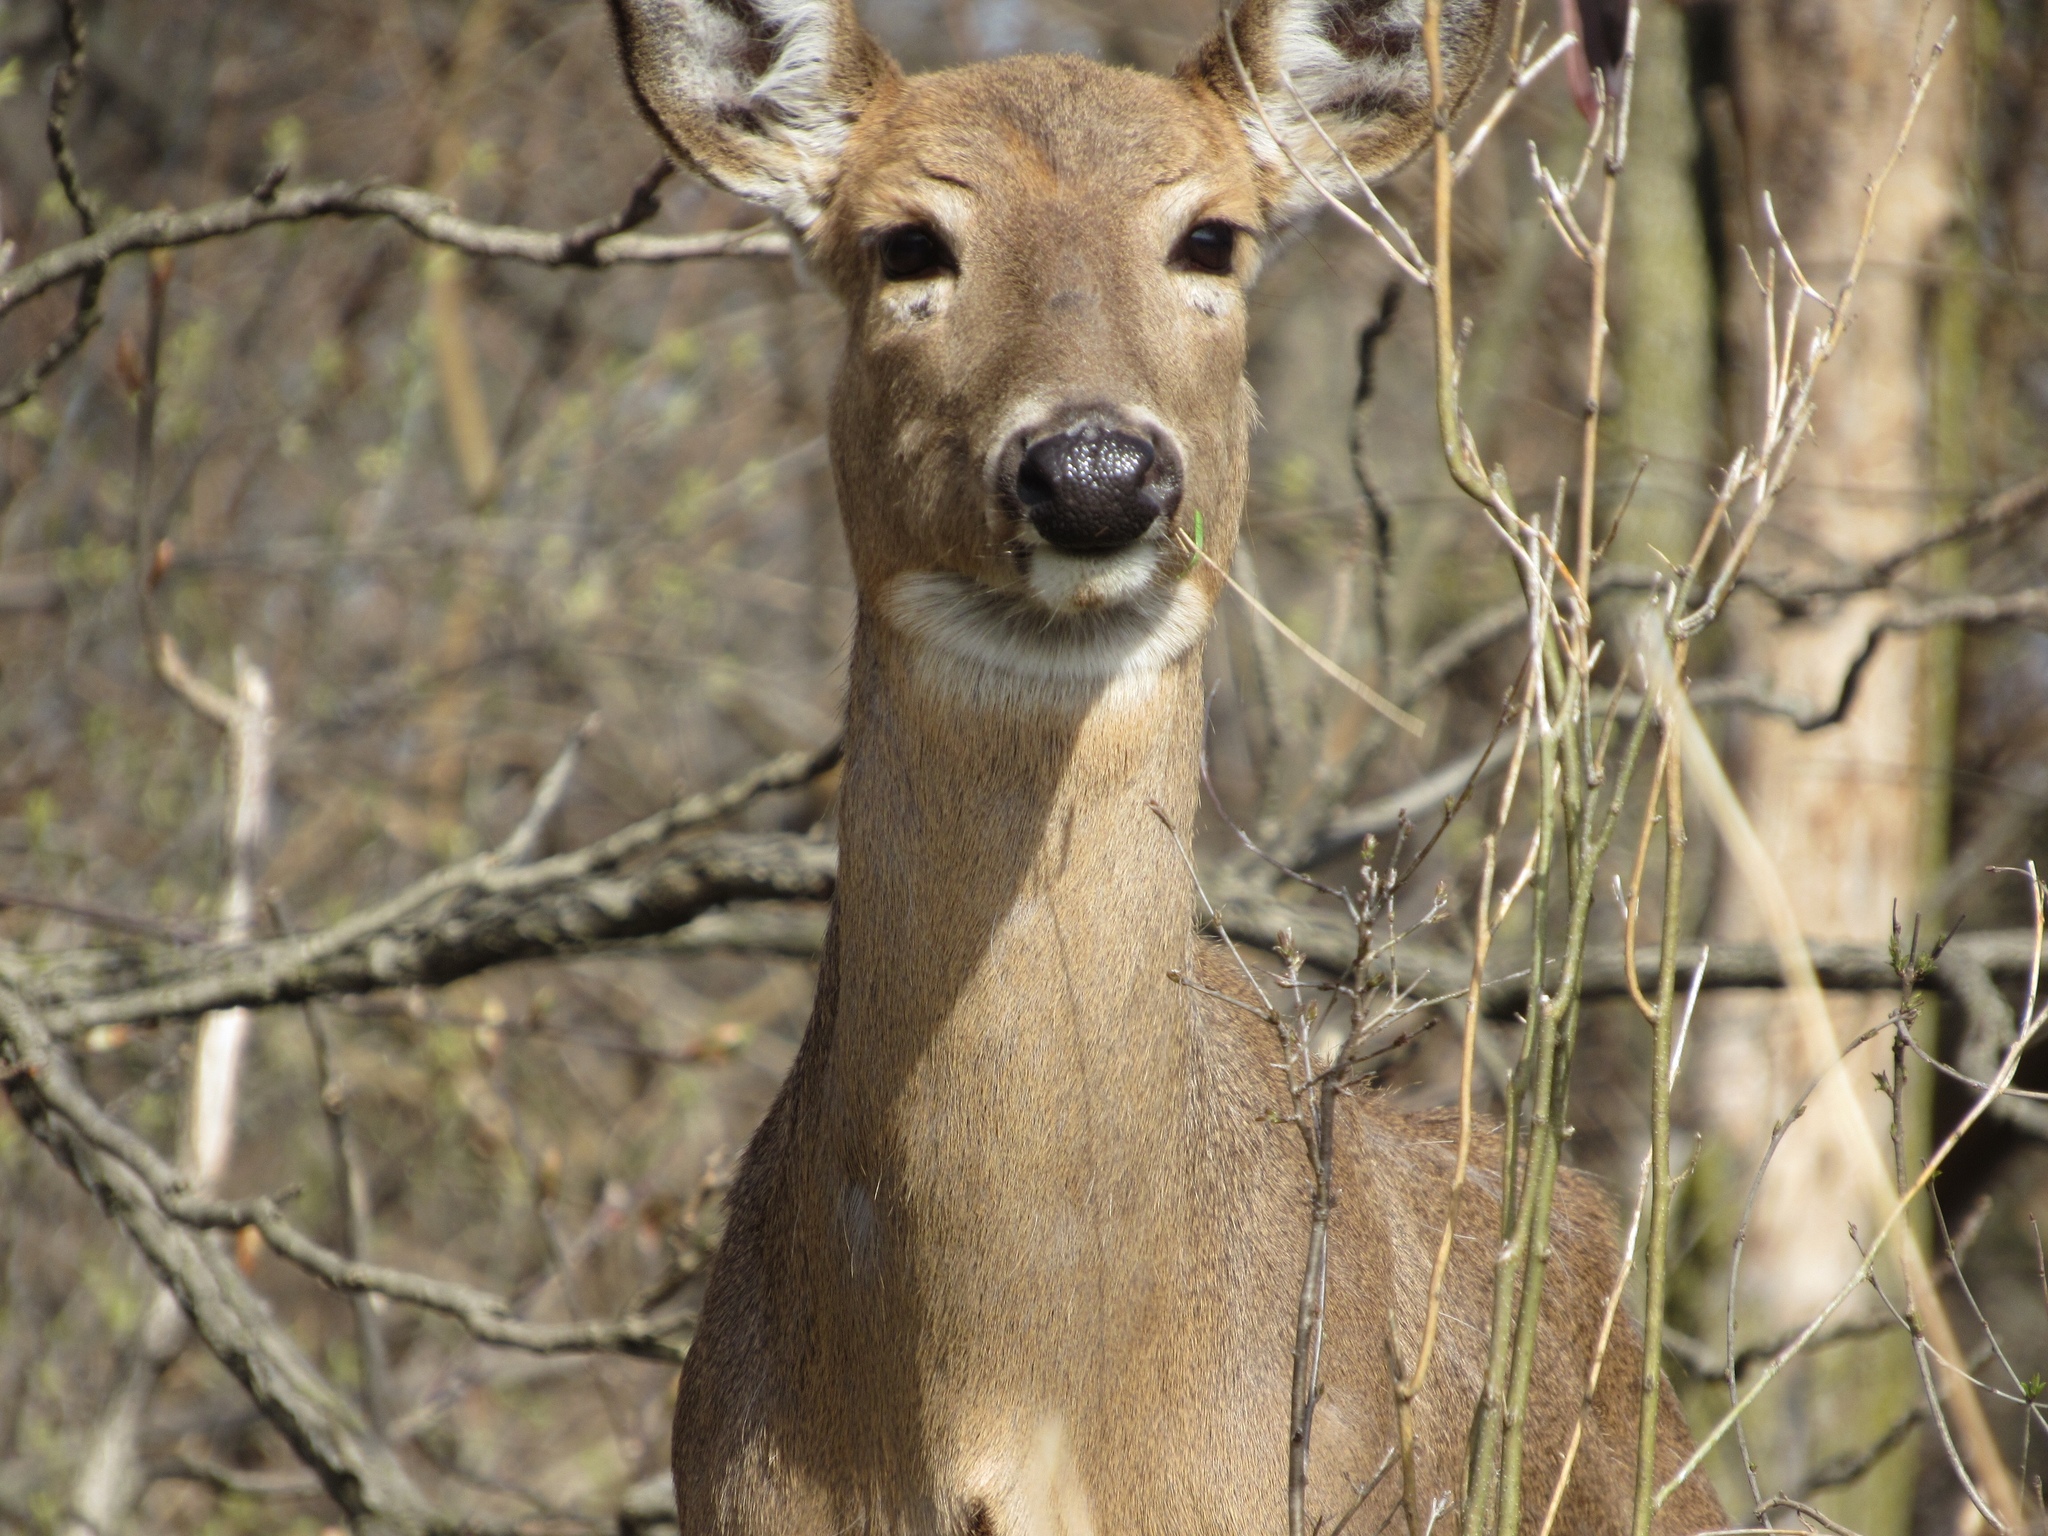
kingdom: Animalia
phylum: Chordata
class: Mammalia
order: Artiodactyla
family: Cervidae
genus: Odocoileus
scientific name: Odocoileus virginianus
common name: White-tailed deer
